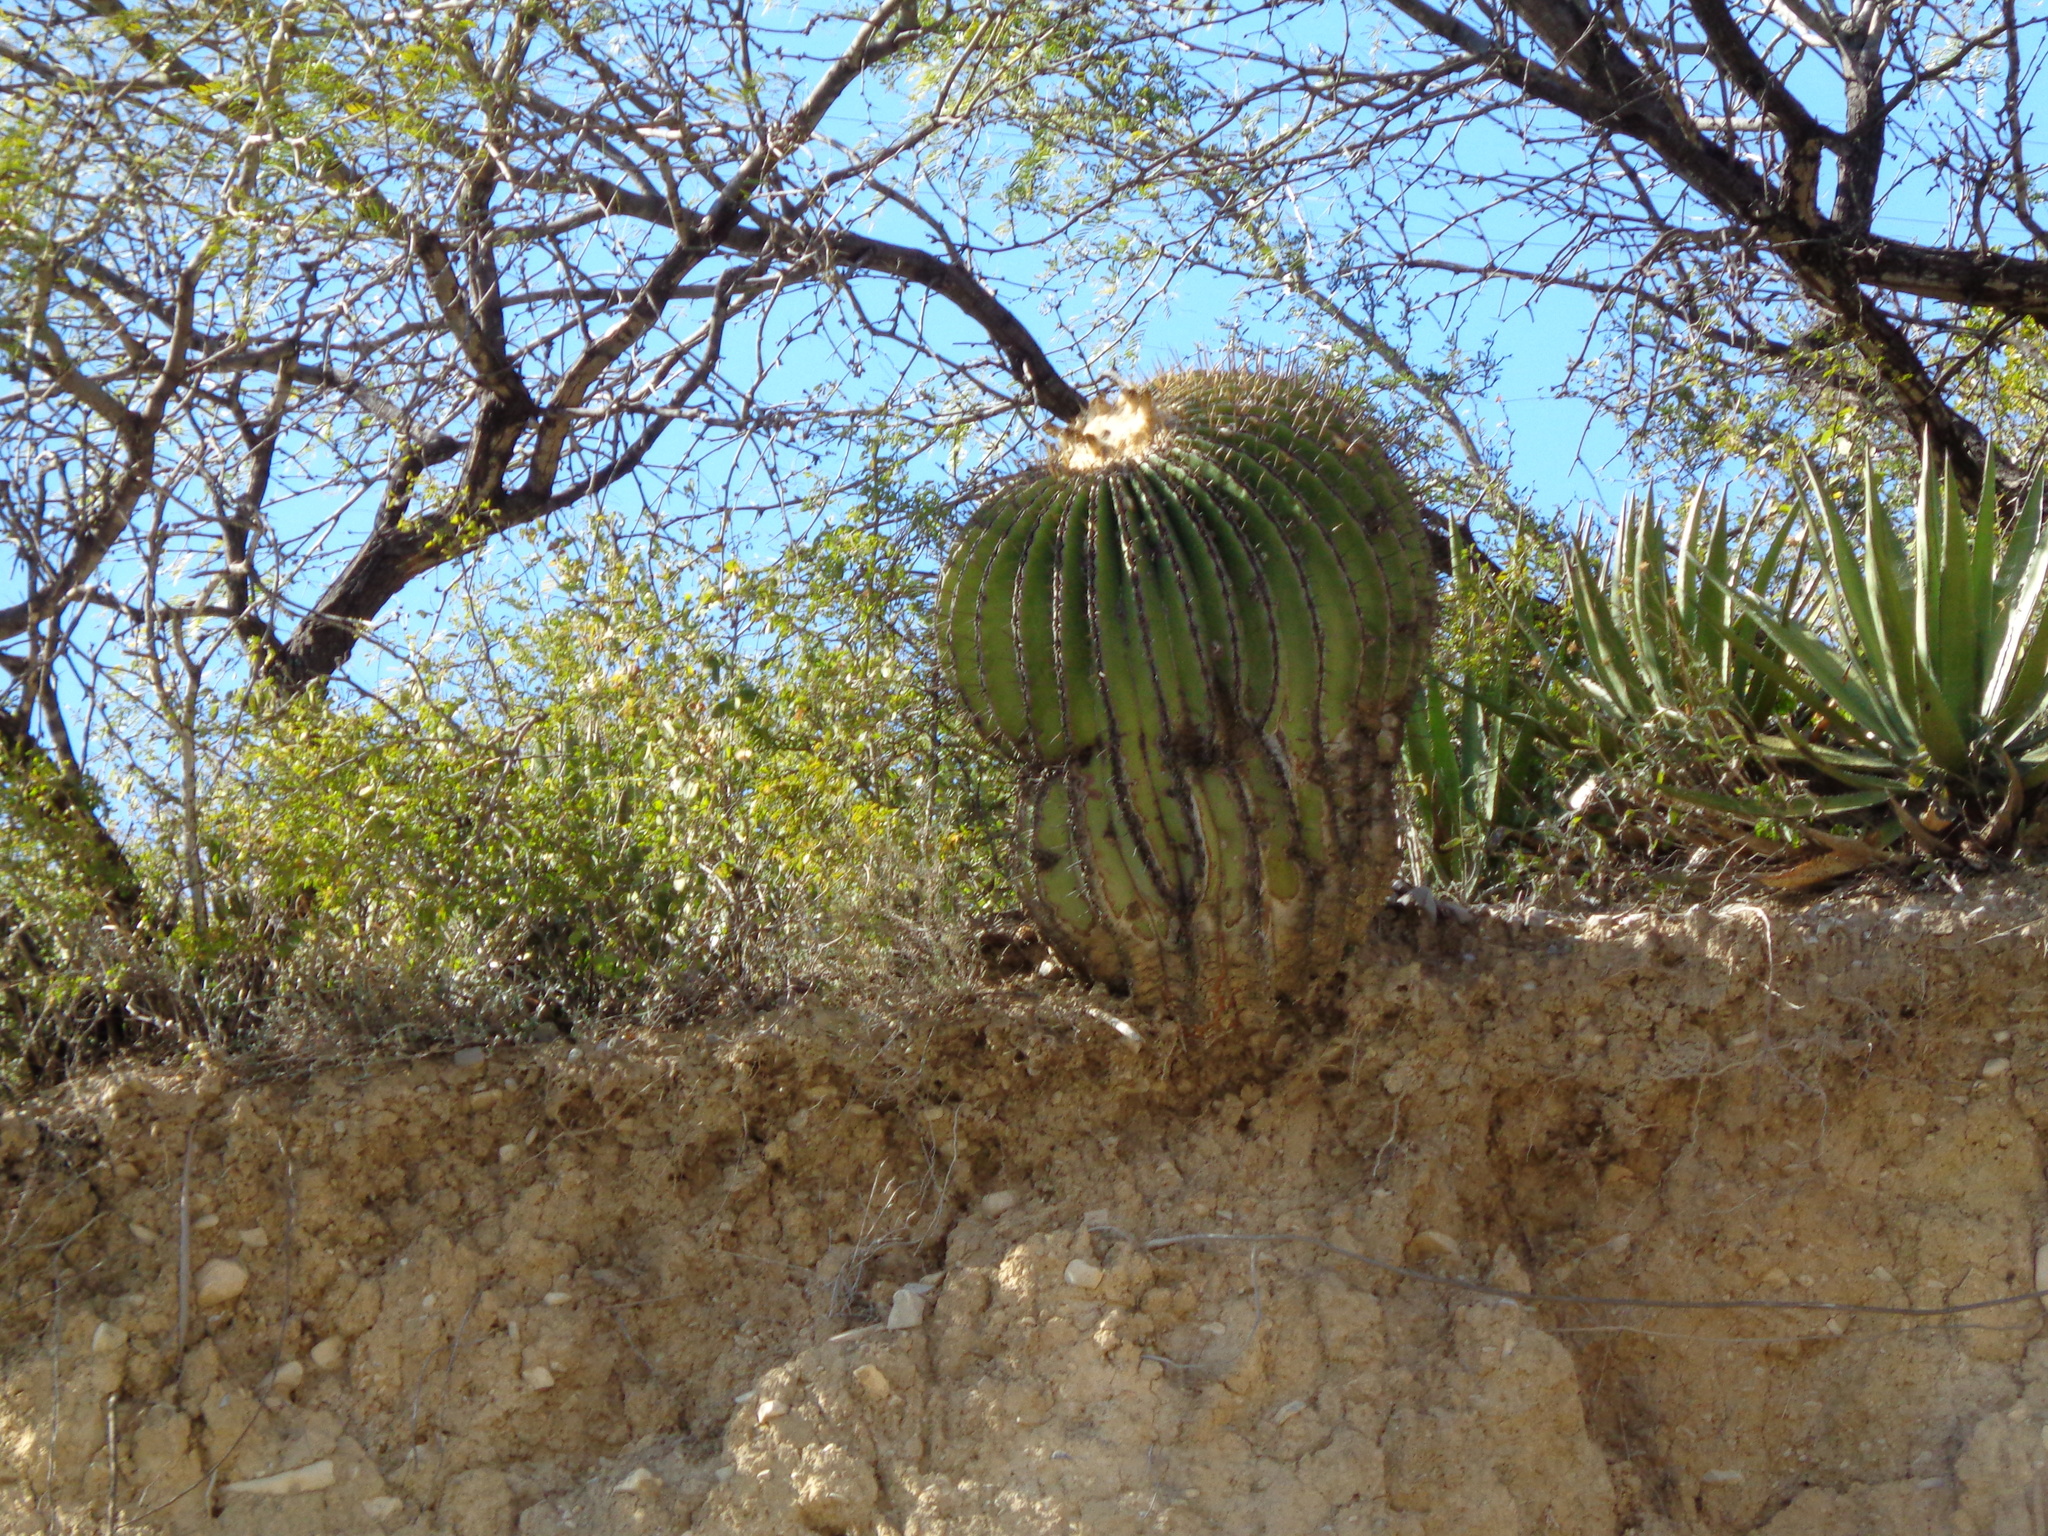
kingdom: Plantae
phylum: Tracheophyta
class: Magnoliopsida
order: Caryophyllales
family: Cactaceae
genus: Echinocactus
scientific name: Echinocactus platyacanthus
